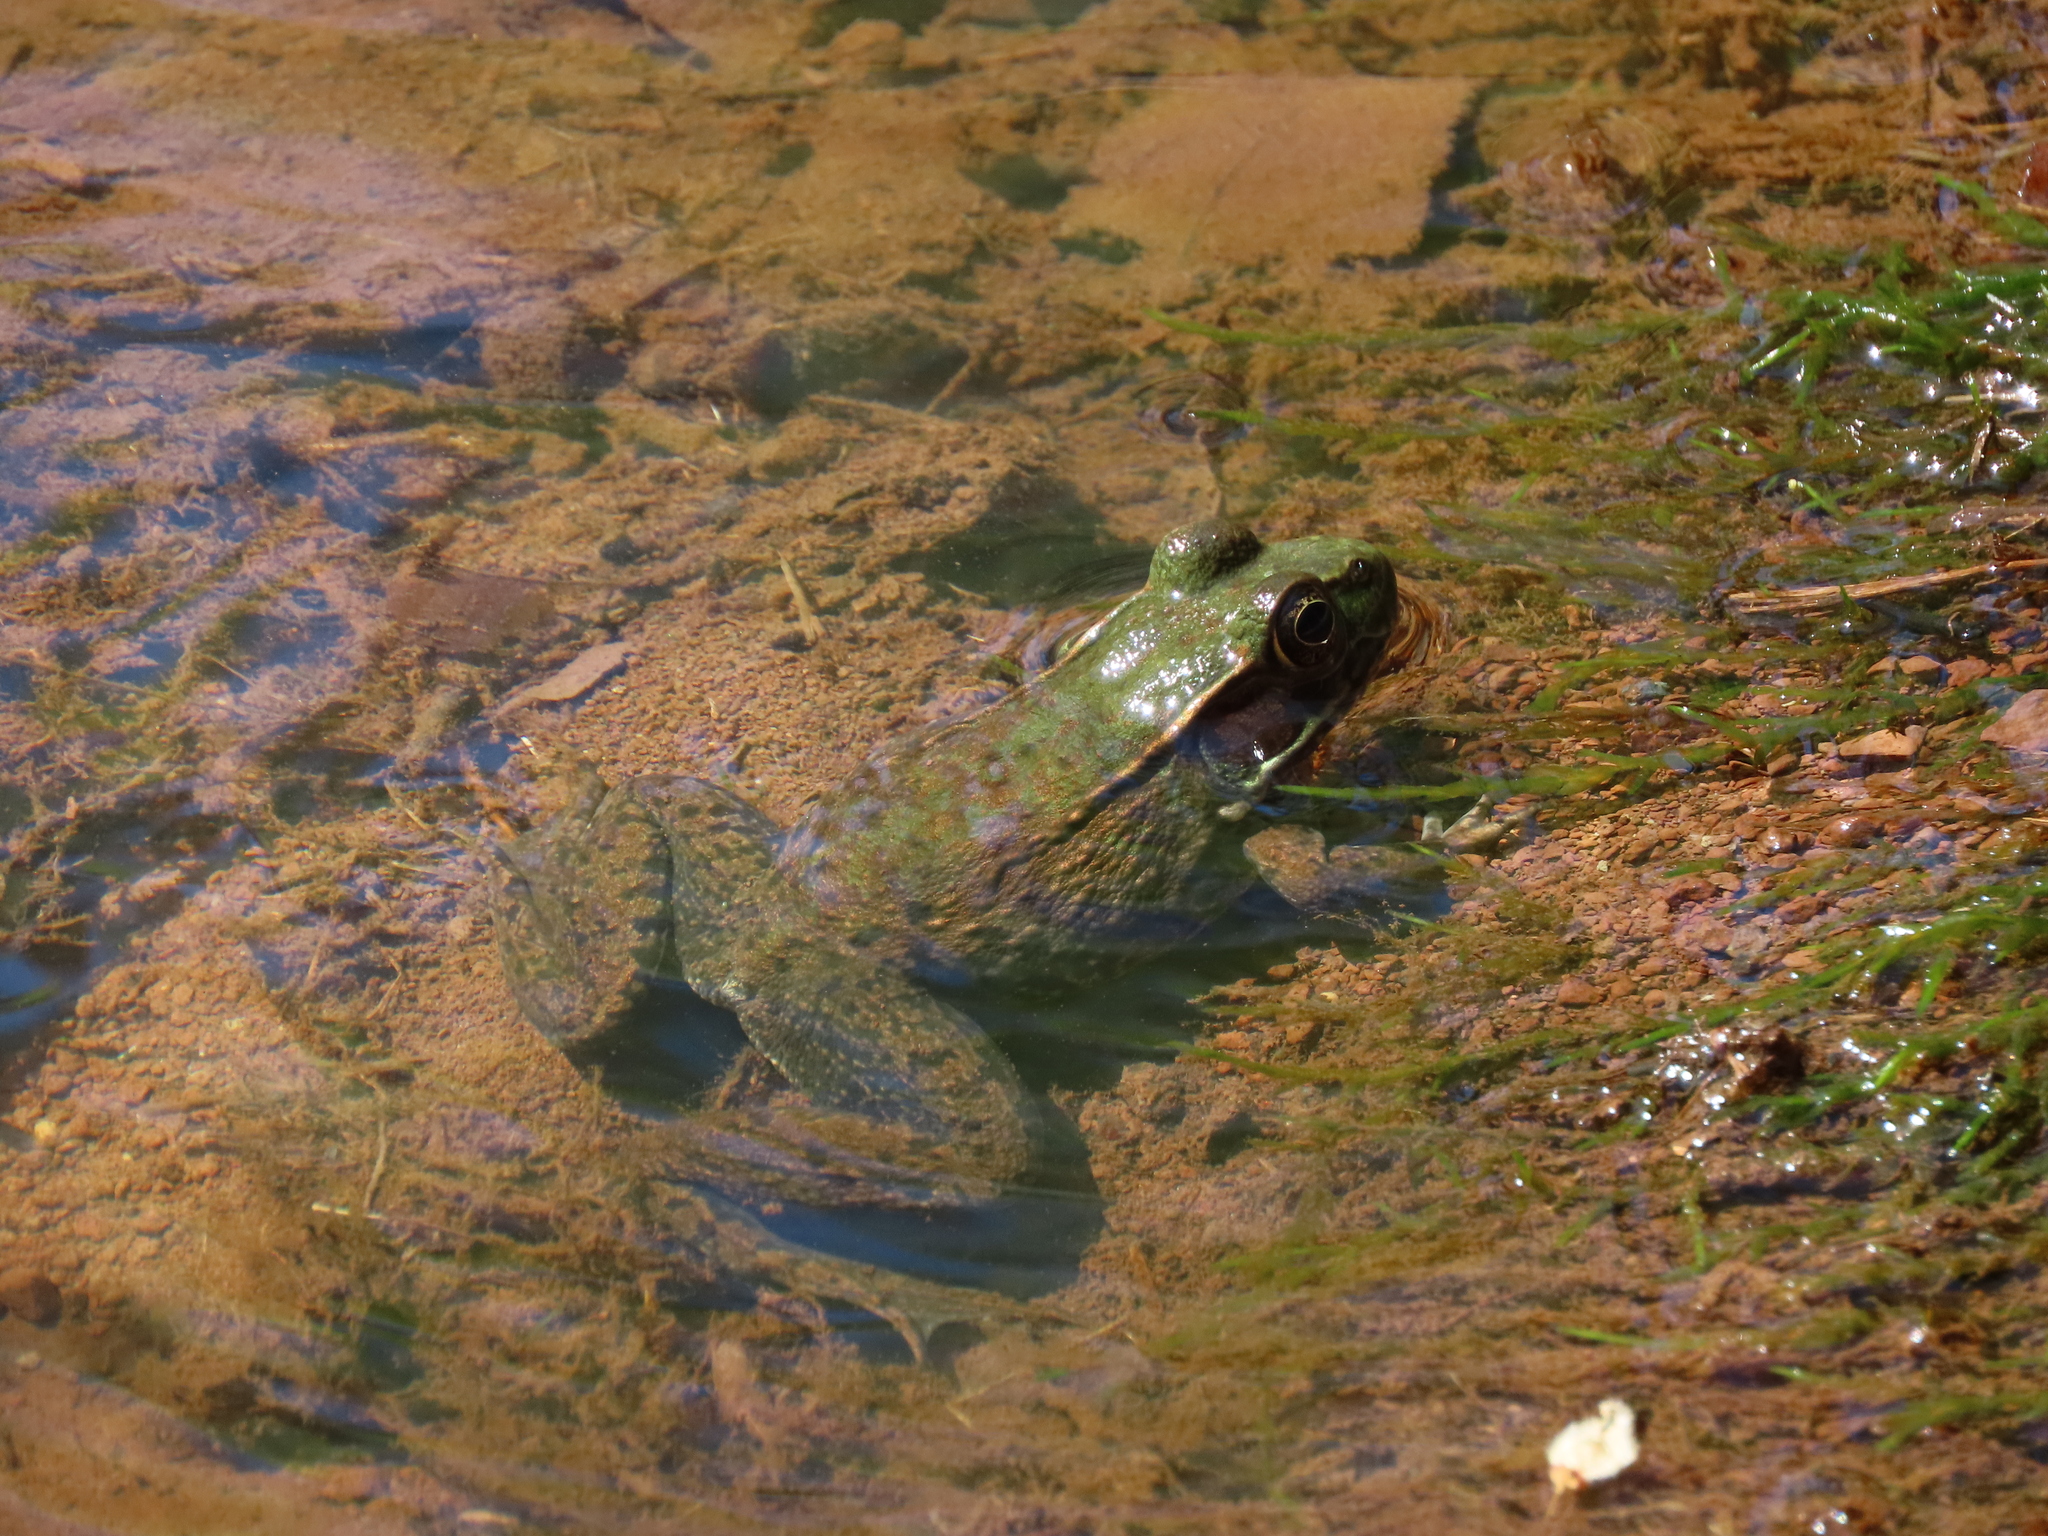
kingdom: Animalia
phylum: Chordata
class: Amphibia
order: Anura
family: Ranidae
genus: Lithobates
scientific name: Lithobates clamitans
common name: Green frog
